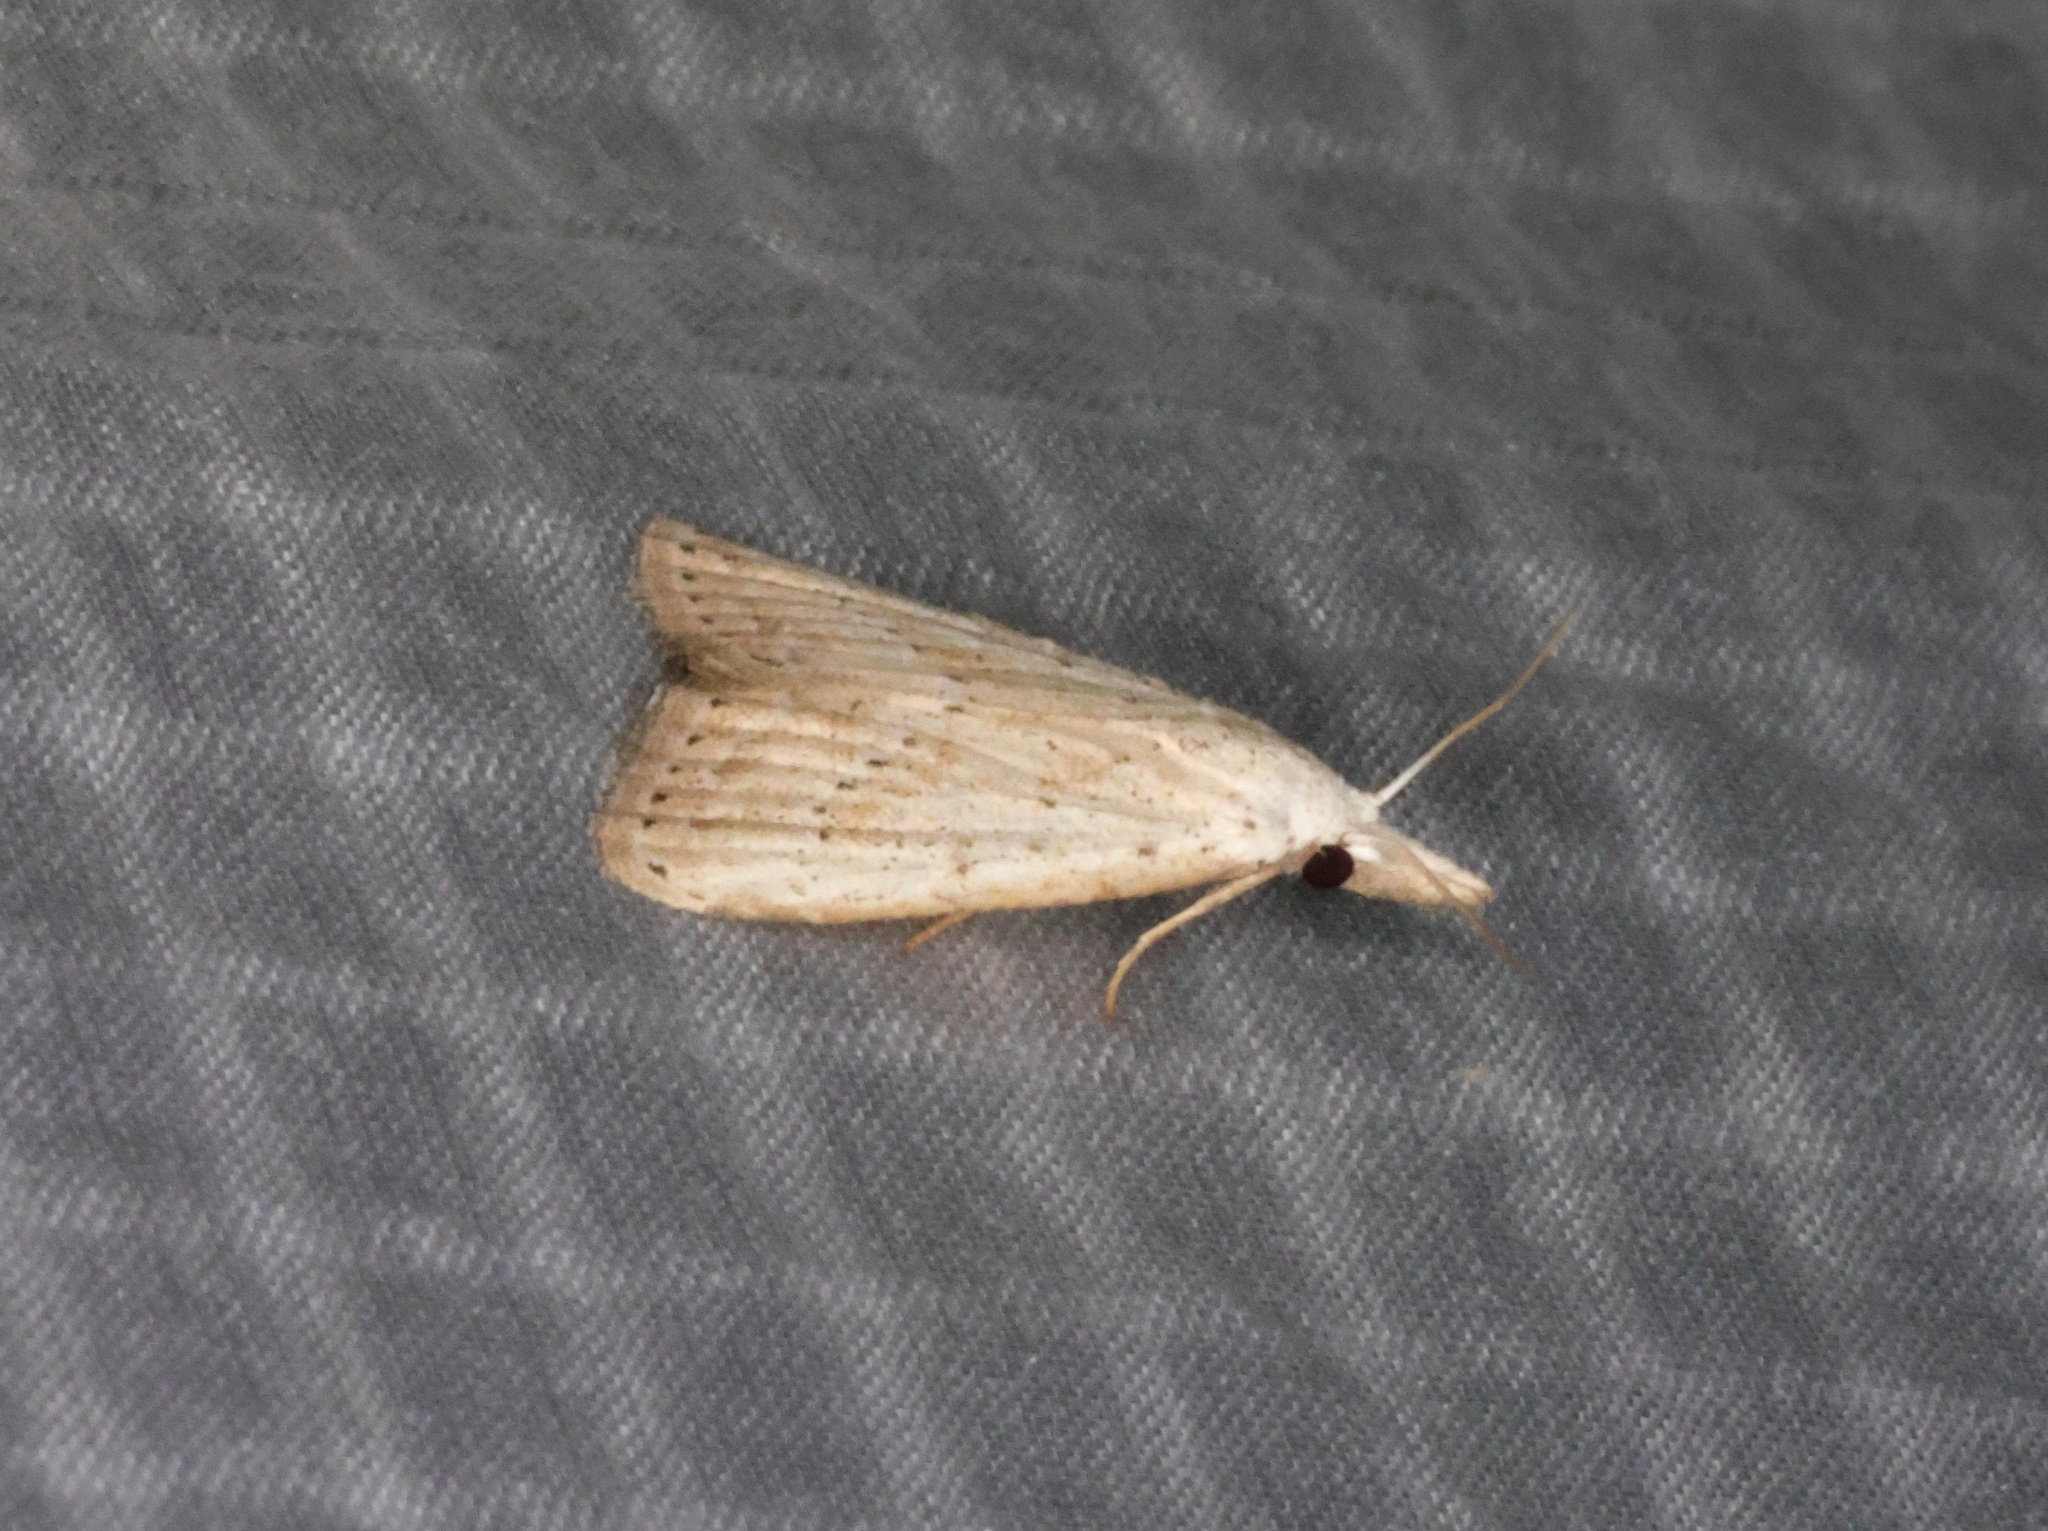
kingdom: Animalia
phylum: Arthropoda
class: Insecta
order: Lepidoptera
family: Nolidae
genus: Meganola
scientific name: Meganola brunellus
